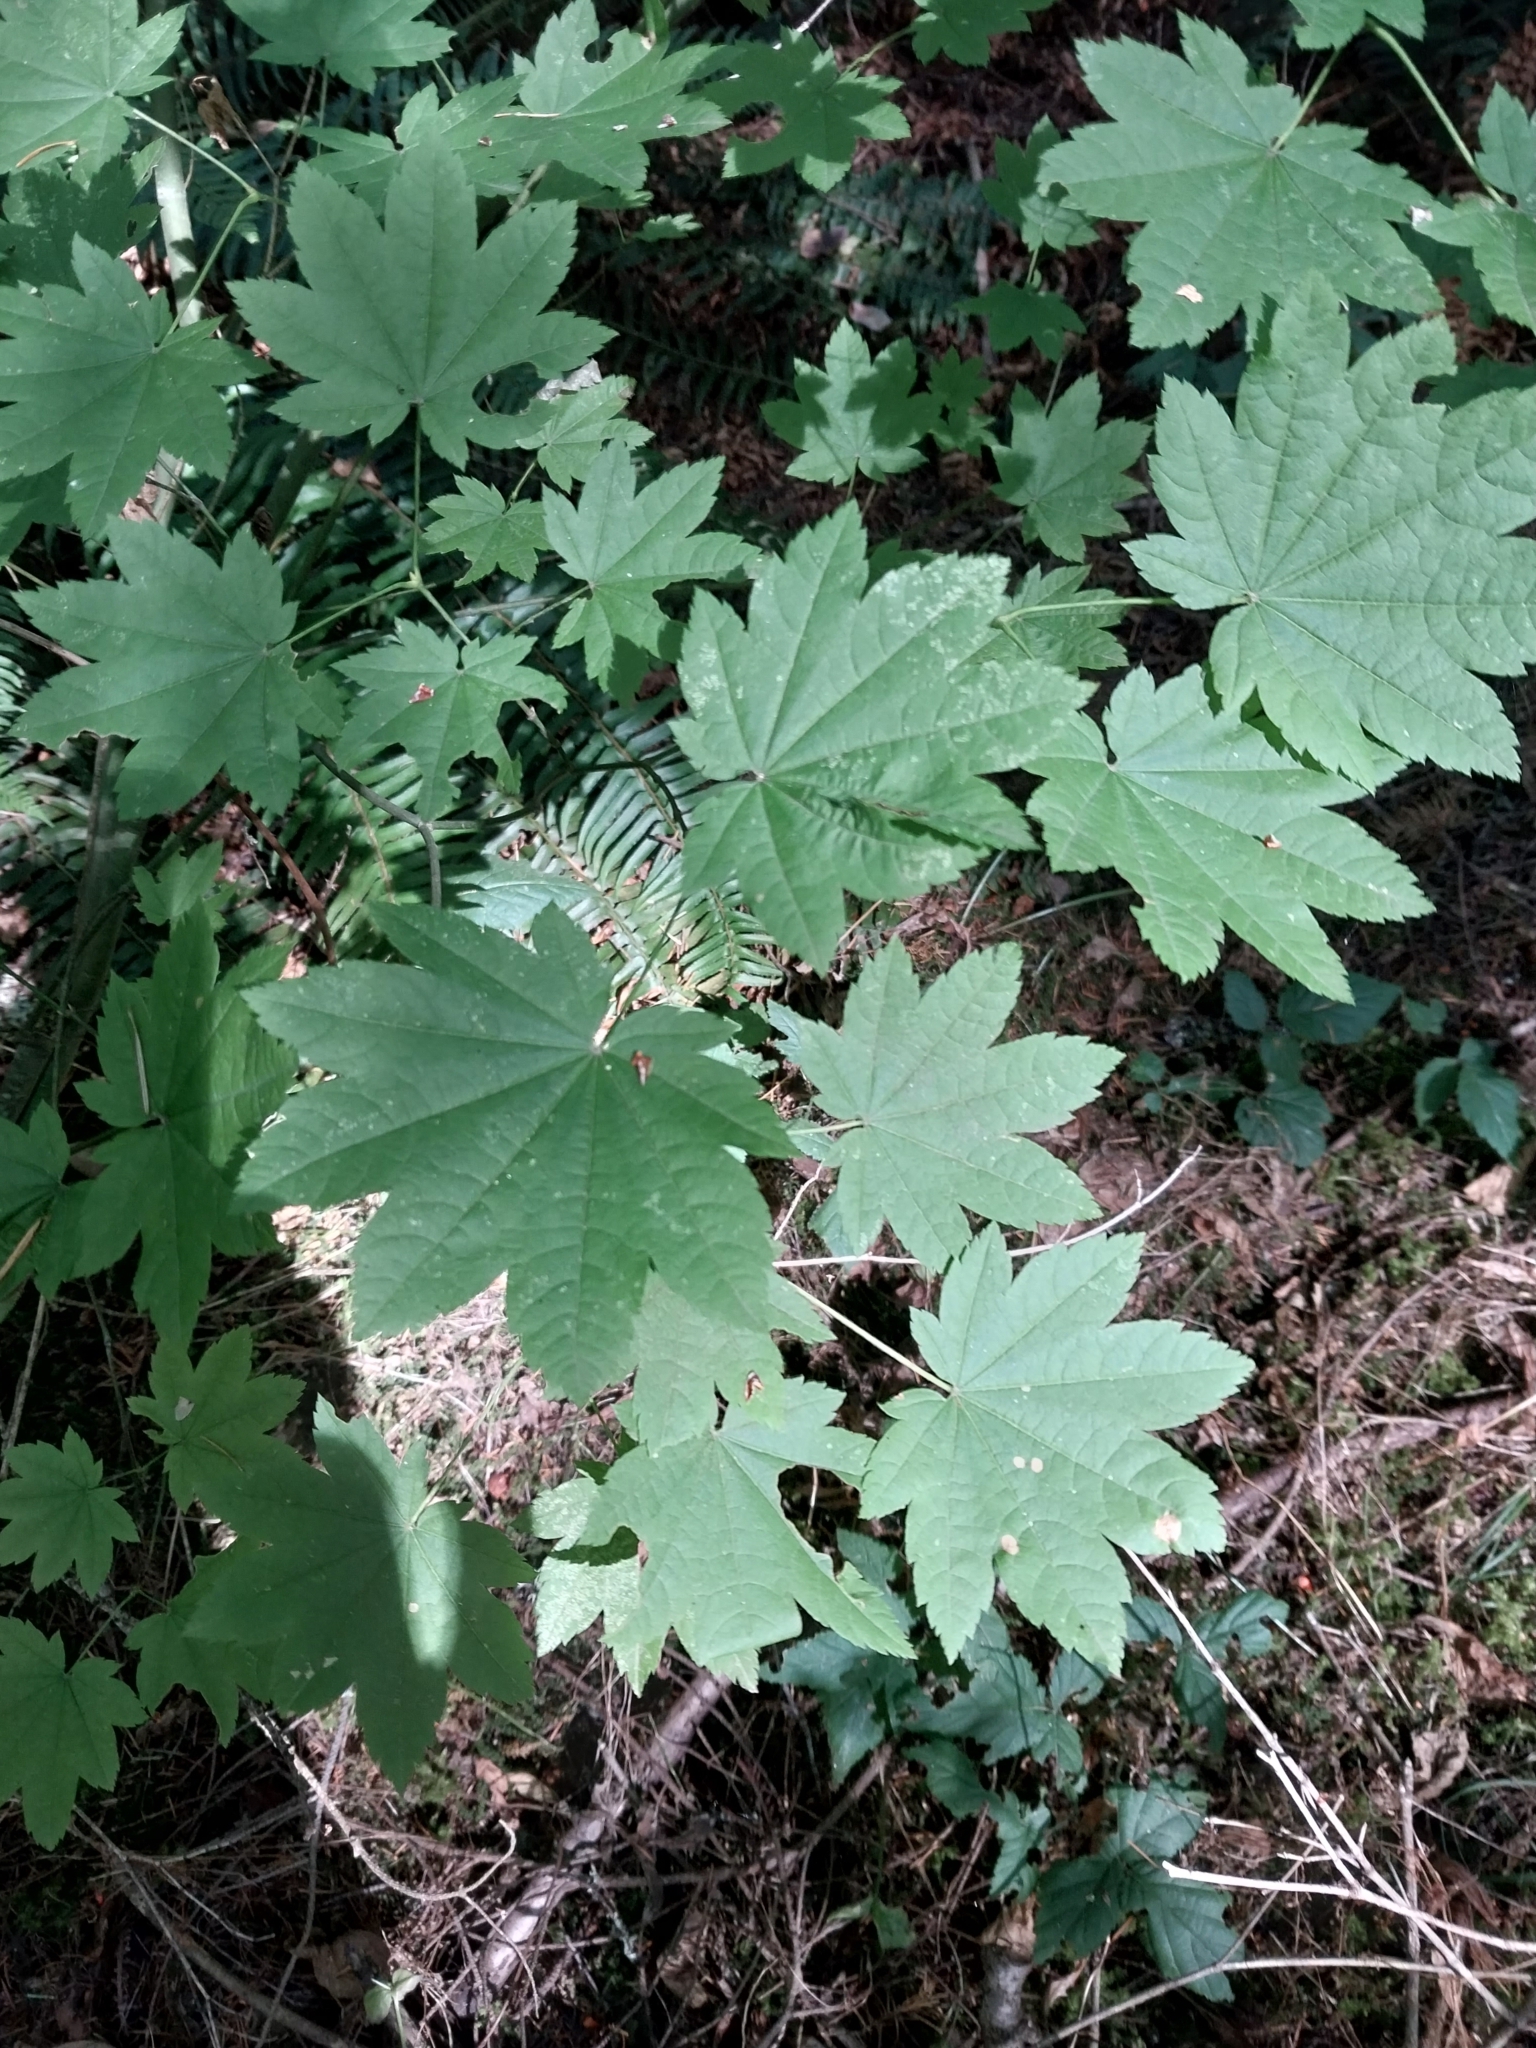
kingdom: Plantae
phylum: Tracheophyta
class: Magnoliopsida
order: Sapindales
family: Sapindaceae
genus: Acer
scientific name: Acer circinatum
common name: Vine maple
